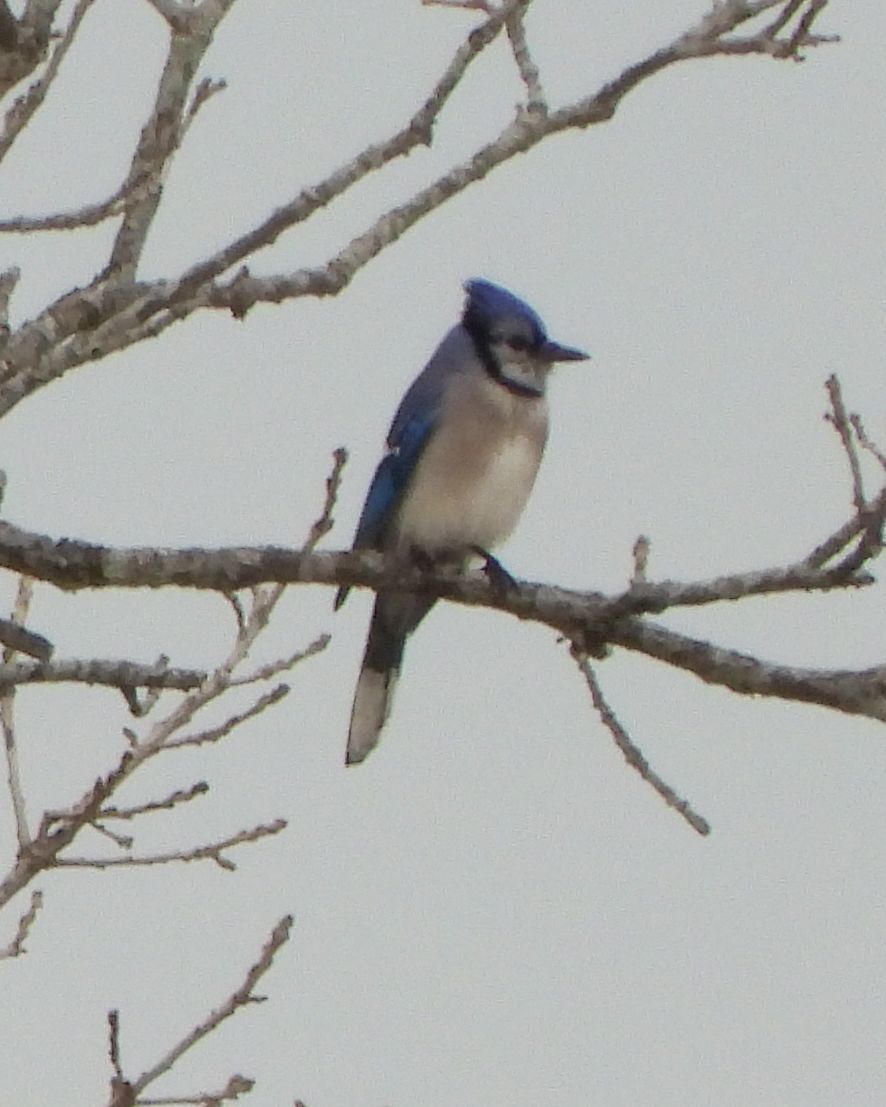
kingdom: Animalia
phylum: Chordata
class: Aves
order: Passeriformes
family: Corvidae
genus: Cyanocitta
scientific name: Cyanocitta cristata
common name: Blue jay
